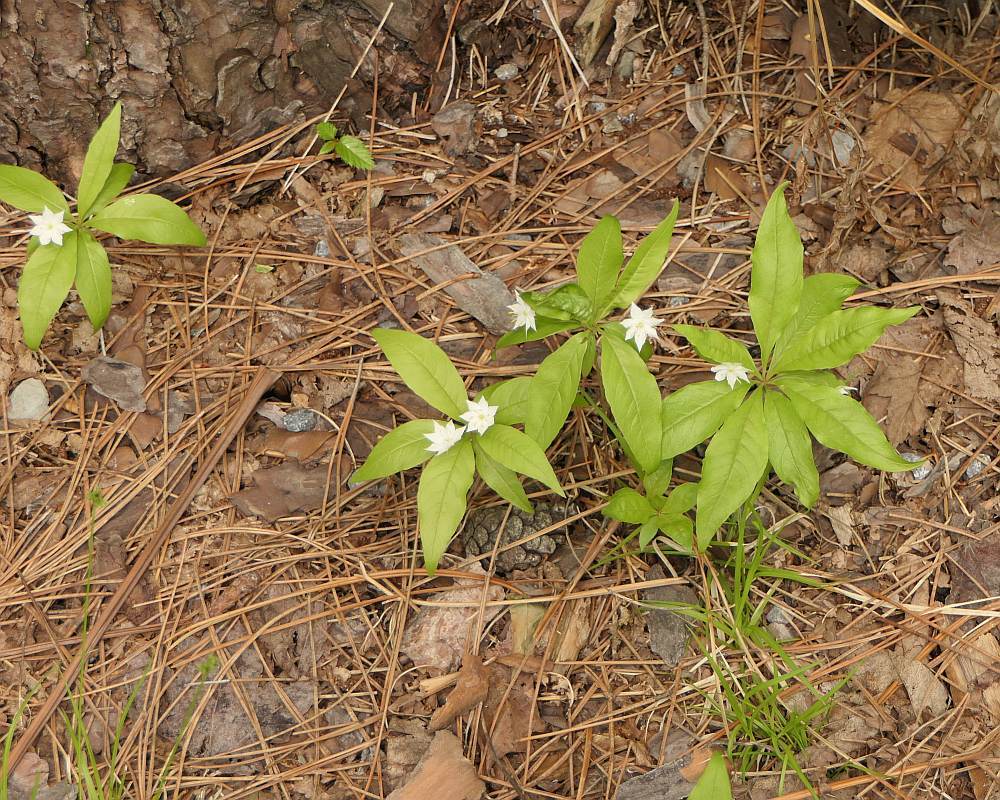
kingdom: Plantae
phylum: Tracheophyta
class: Magnoliopsida
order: Ericales
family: Primulaceae
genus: Lysimachia
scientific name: Lysimachia borealis
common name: American starflower
